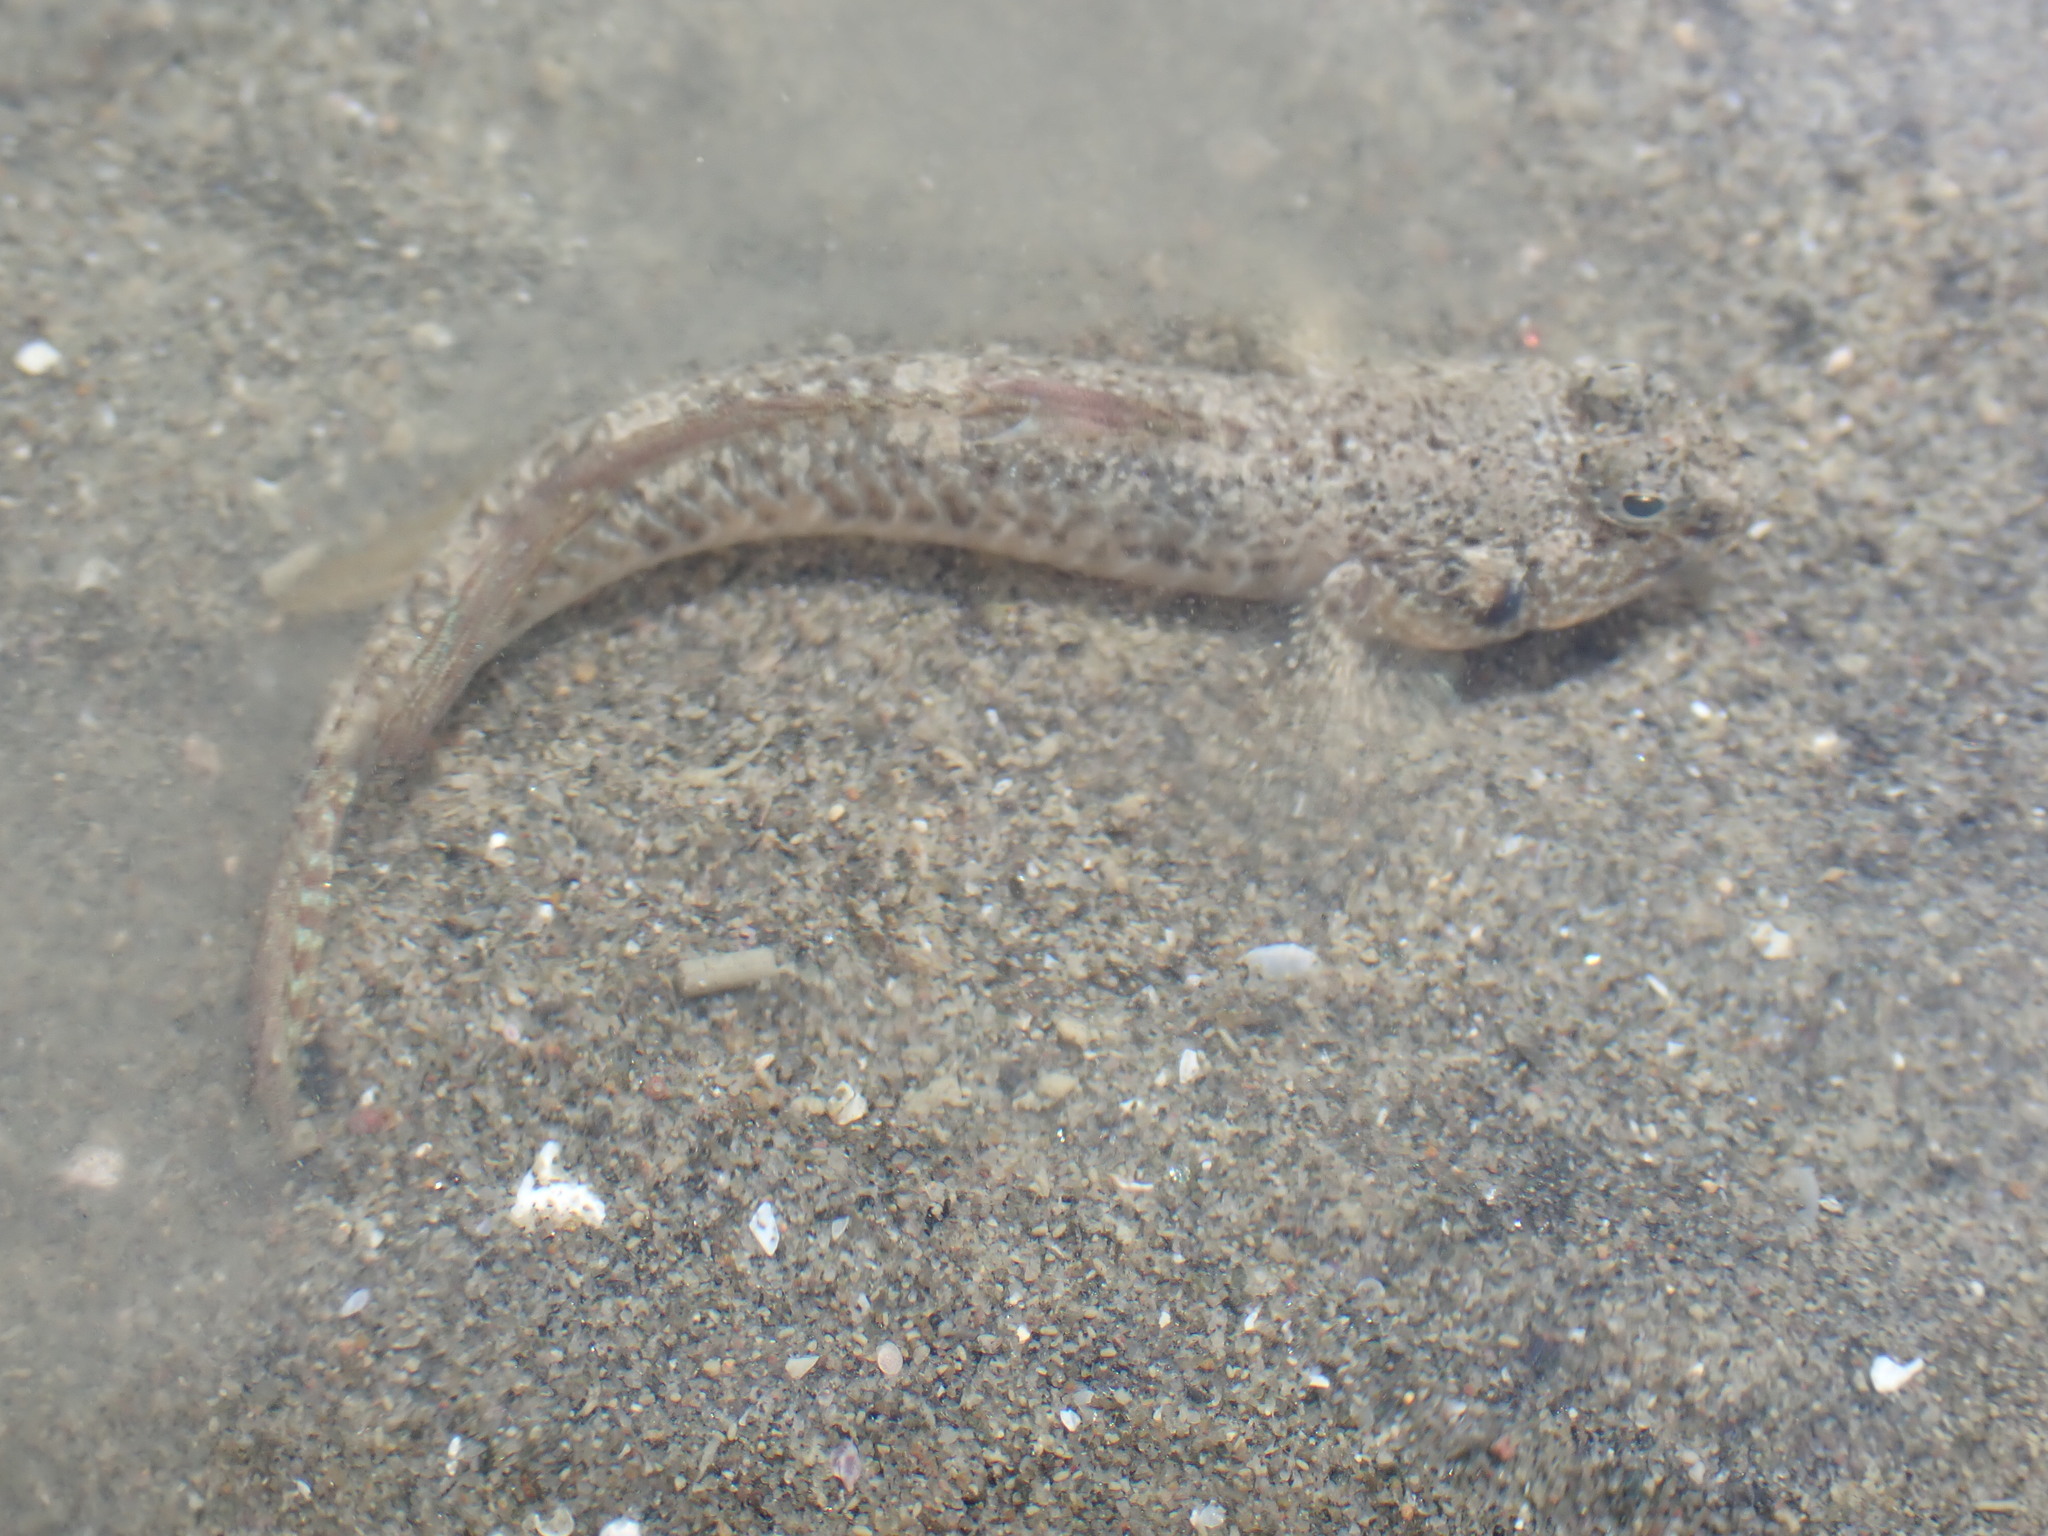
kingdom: Animalia
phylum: Chordata
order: Perciformes
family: Gobiidae
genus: Favonigobius
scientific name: Favonigobius lentiginosus
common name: Eastern longfin goby
